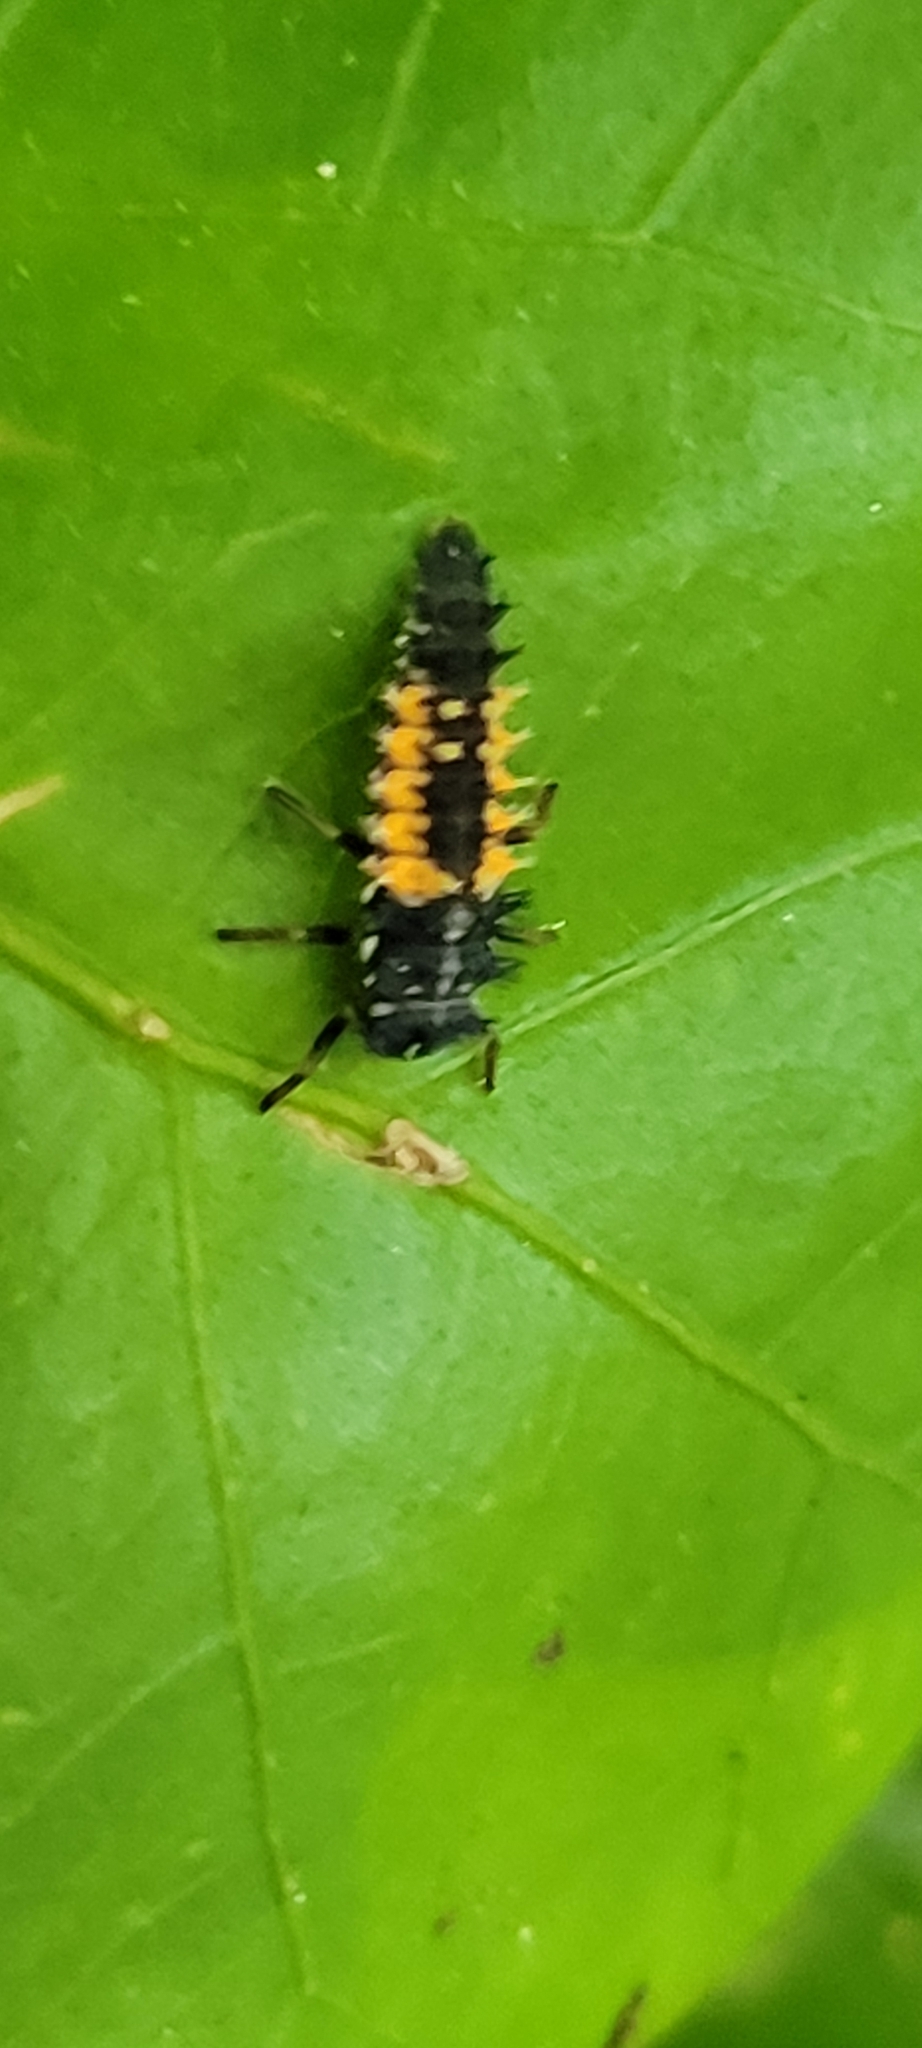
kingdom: Animalia
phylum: Arthropoda
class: Insecta
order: Coleoptera
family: Coccinellidae
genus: Harmonia
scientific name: Harmonia axyridis
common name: Harlequin ladybird
